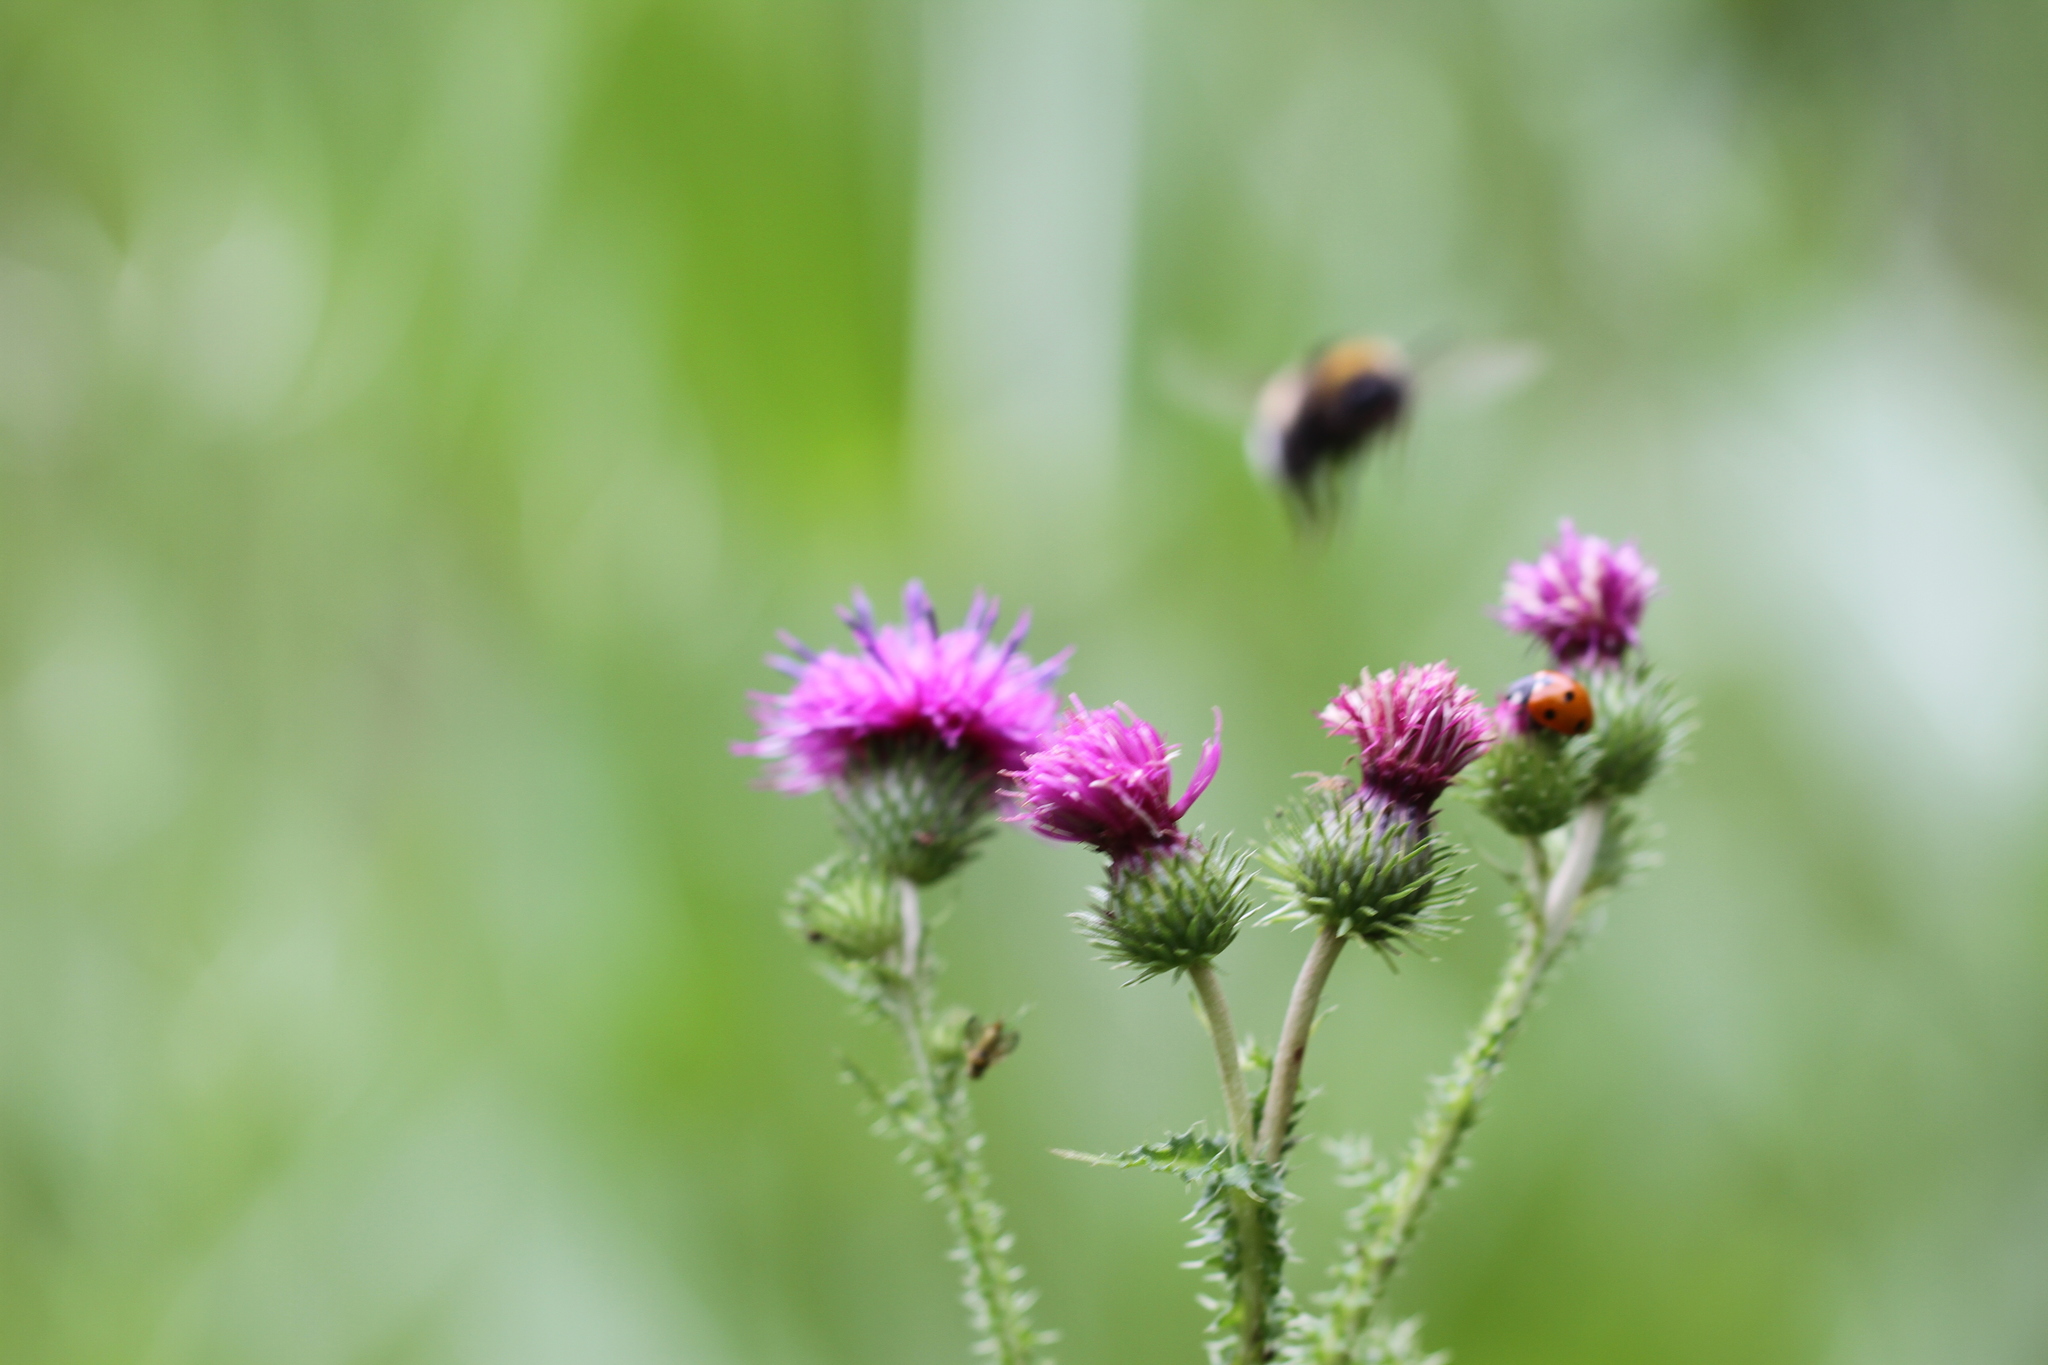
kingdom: Plantae
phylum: Tracheophyta
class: Magnoliopsida
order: Asterales
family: Asteraceae
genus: Carduus
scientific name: Carduus crispus
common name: Welted thistle
